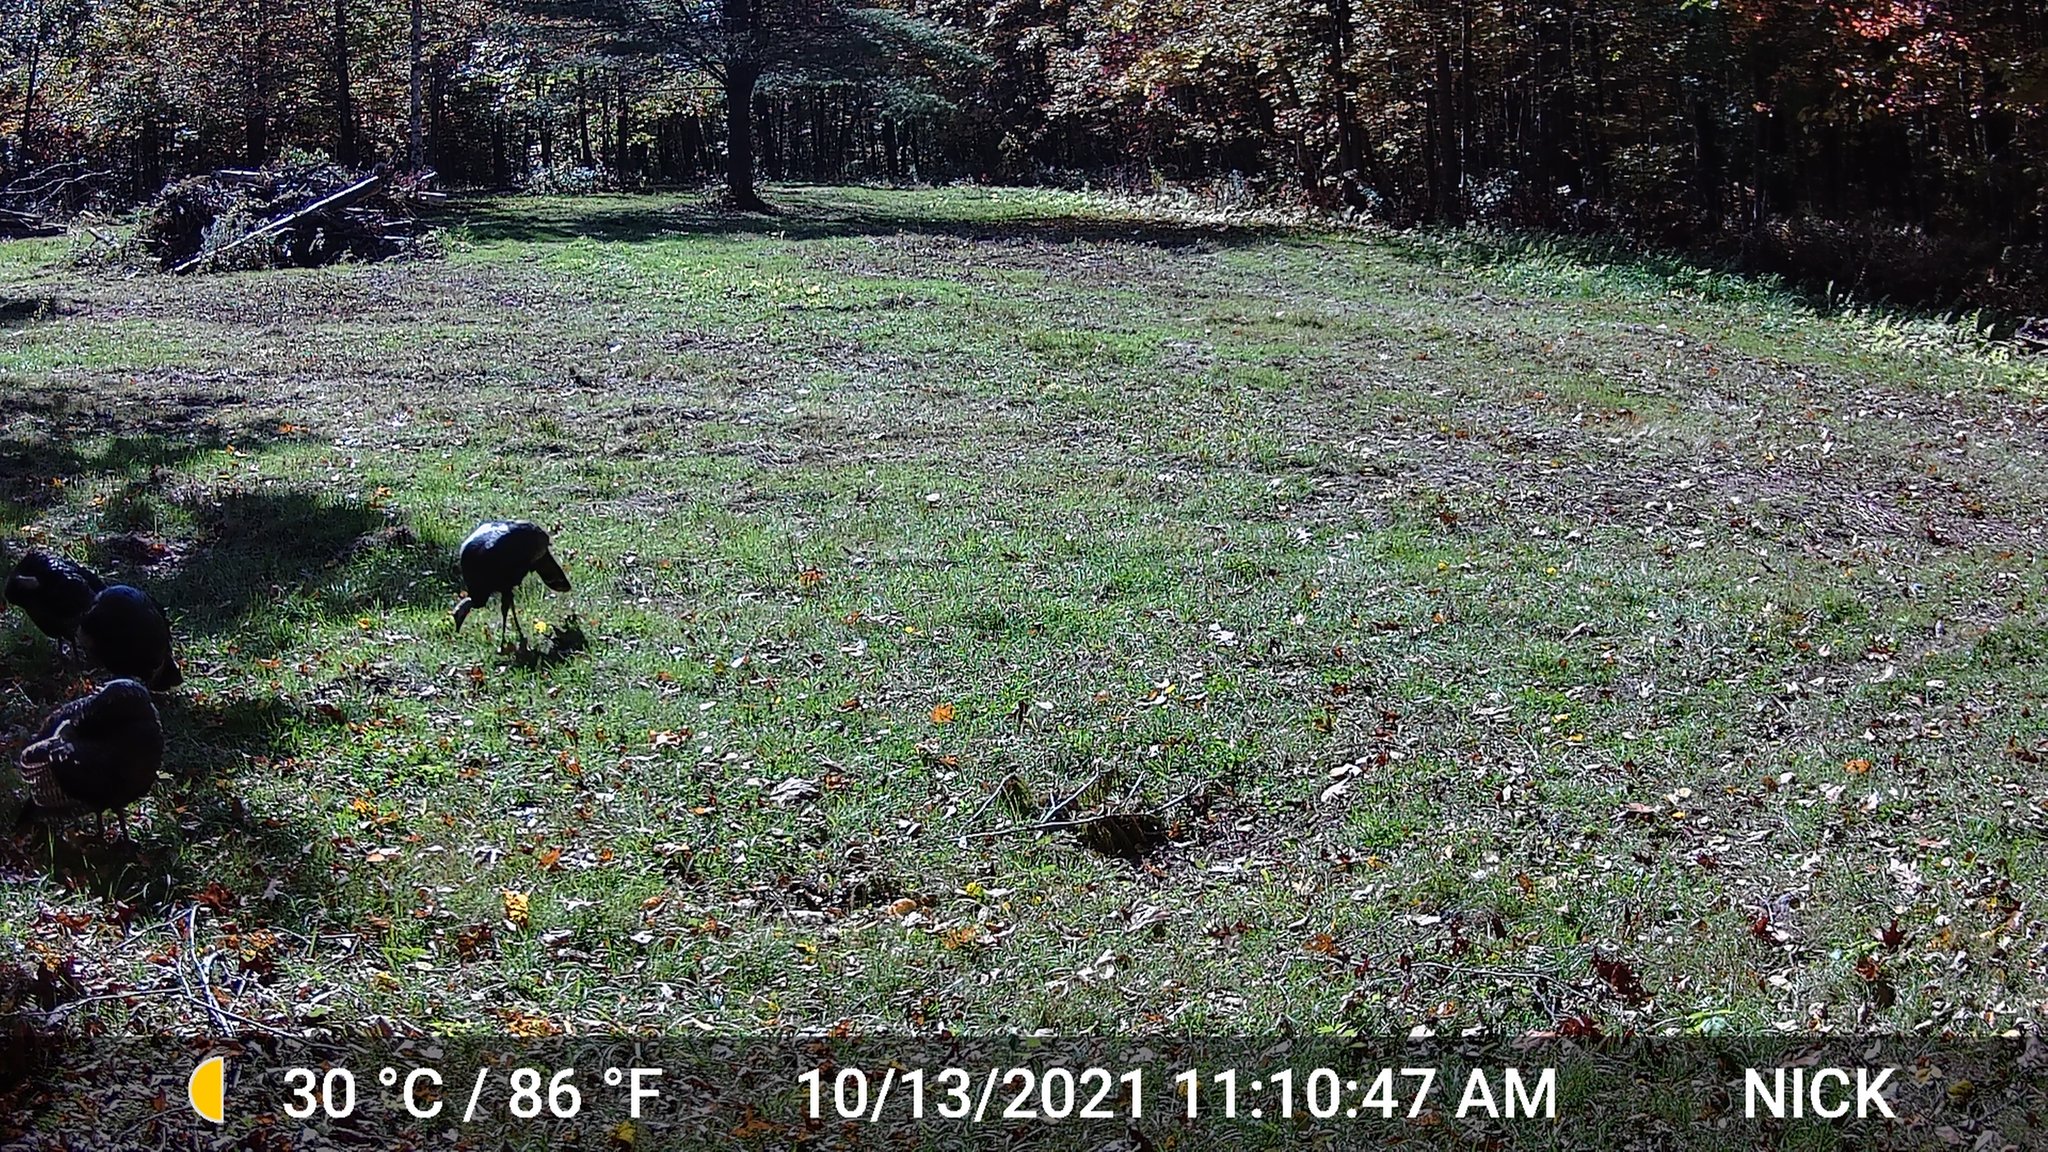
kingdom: Animalia
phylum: Chordata
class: Aves
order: Galliformes
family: Phasianidae
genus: Meleagris
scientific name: Meleagris gallopavo
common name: Wild turkey
